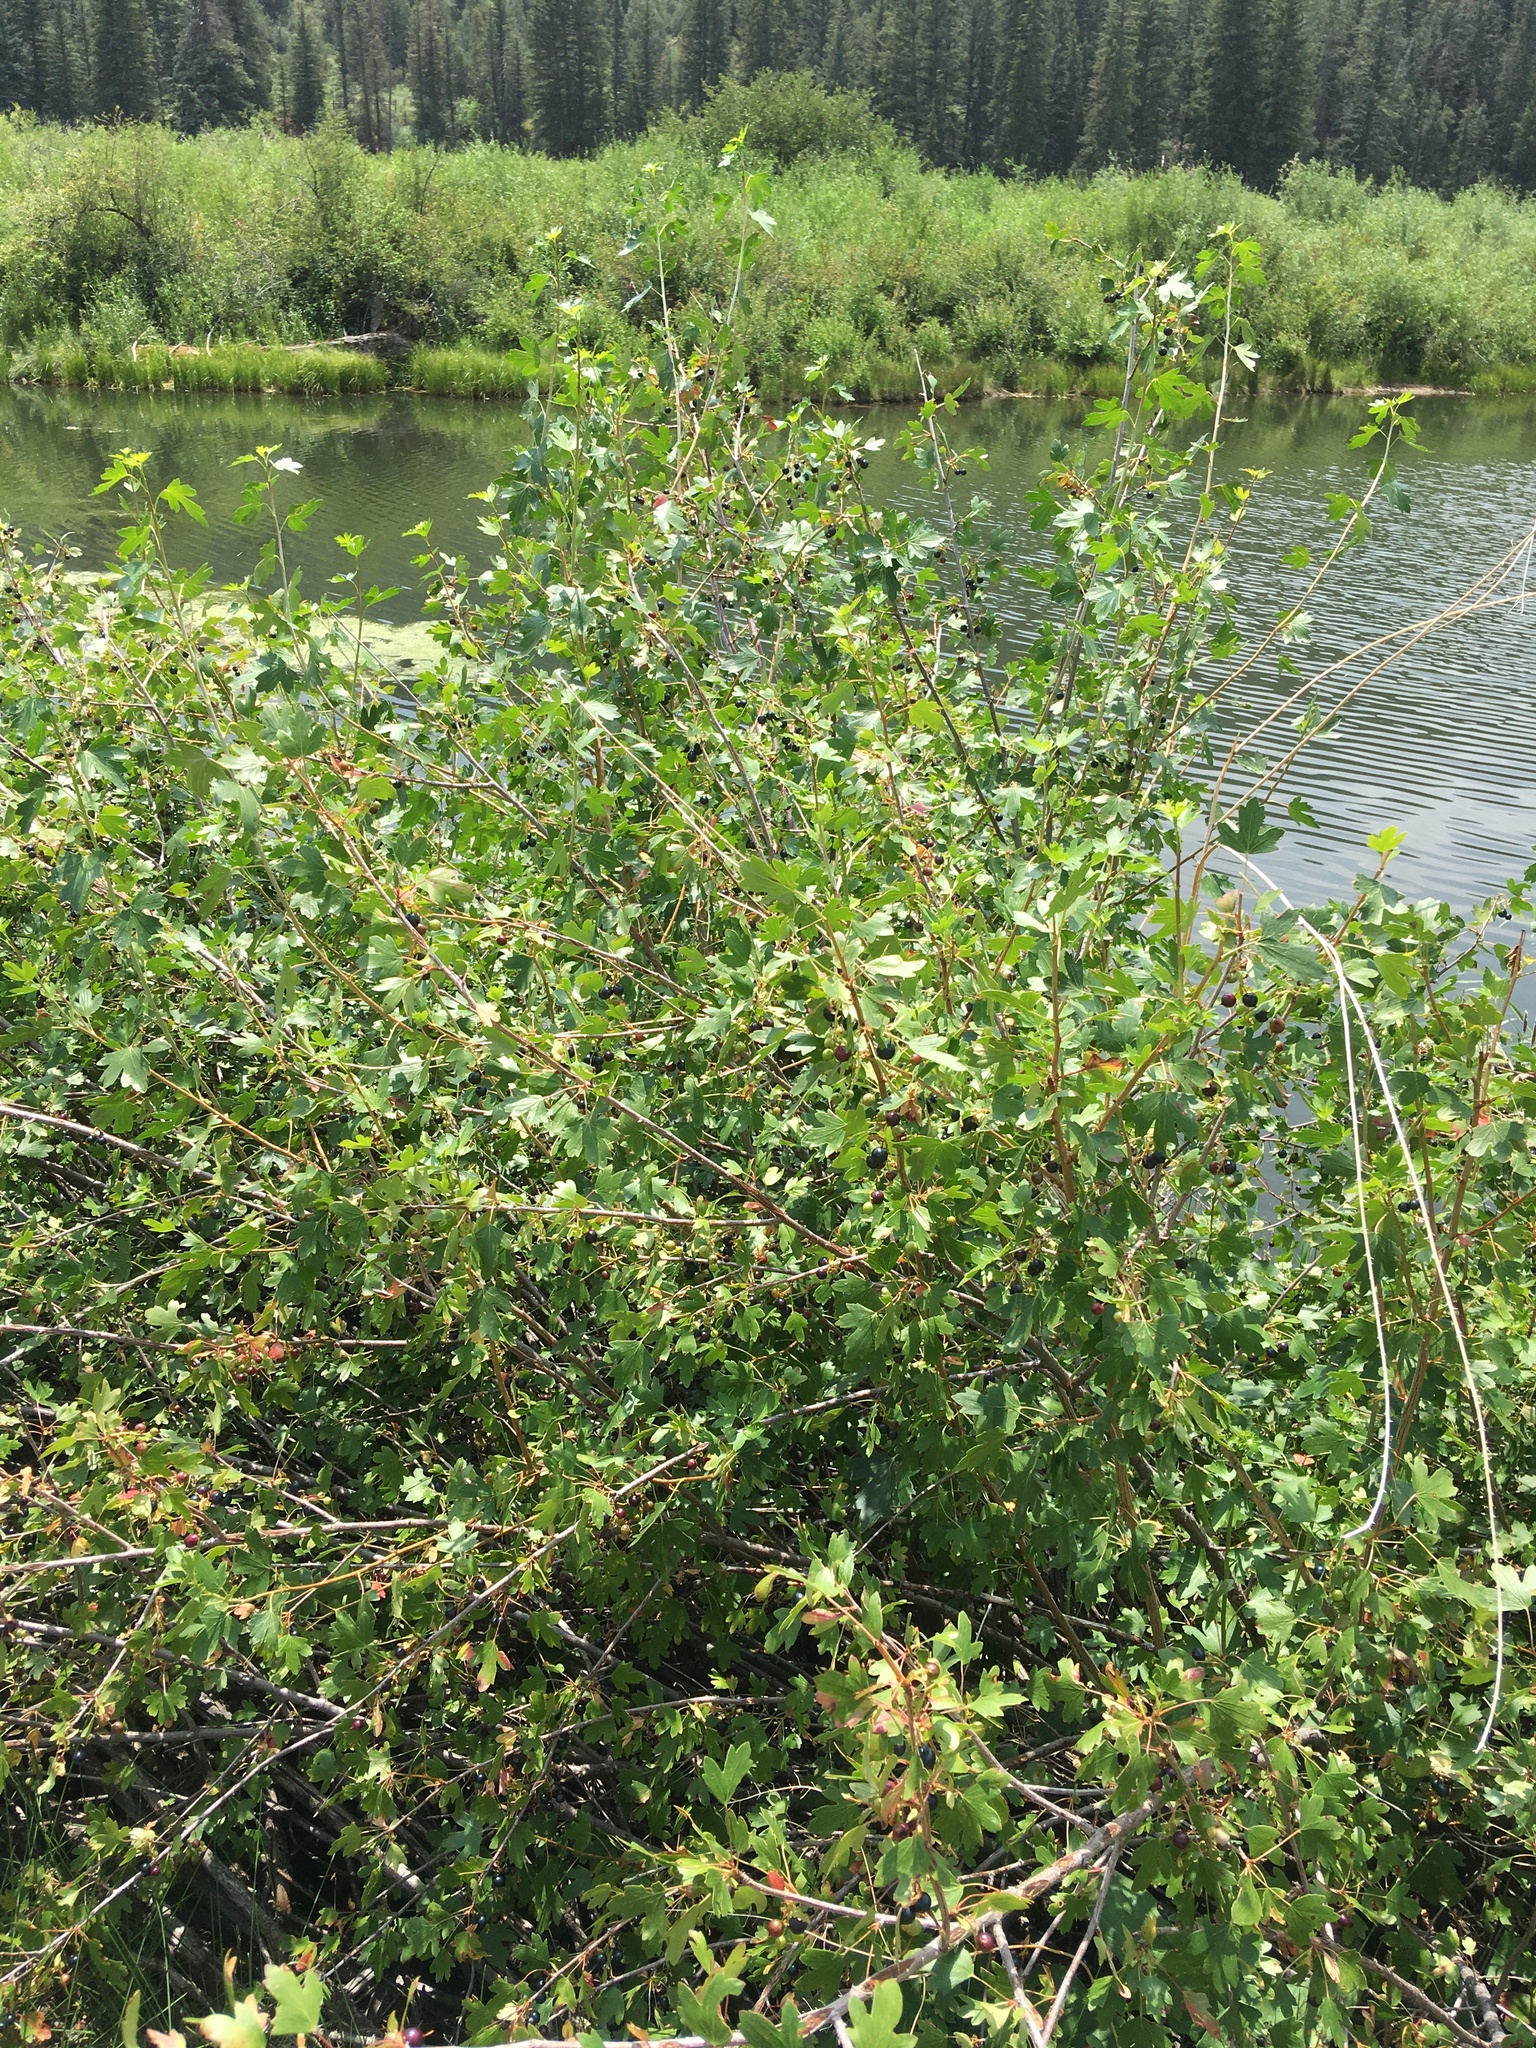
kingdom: Plantae
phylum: Tracheophyta
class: Magnoliopsida
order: Saxifragales
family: Grossulariaceae
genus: Ribes
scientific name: Ribes aureum
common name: Golden currant
